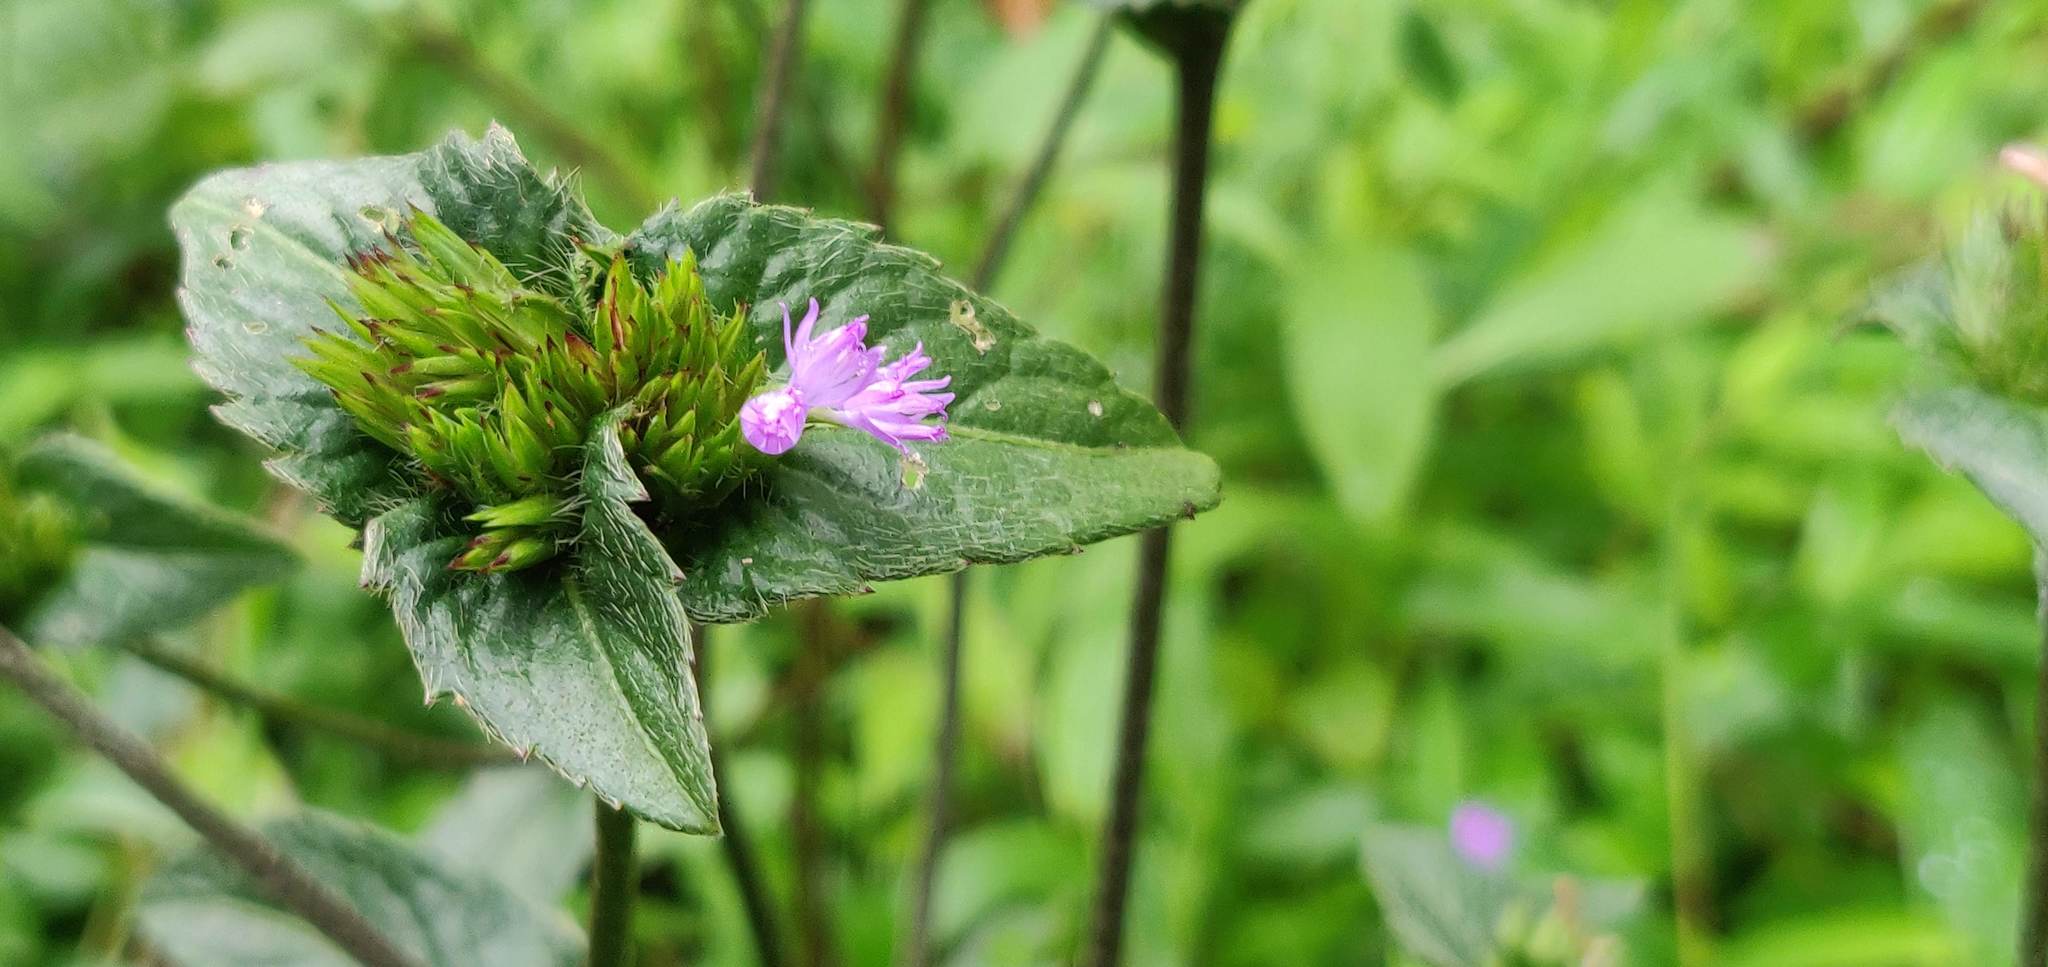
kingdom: Plantae
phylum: Tracheophyta
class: Magnoliopsida
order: Asterales
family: Asteraceae
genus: Elephantopus
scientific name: Elephantopus scaber
